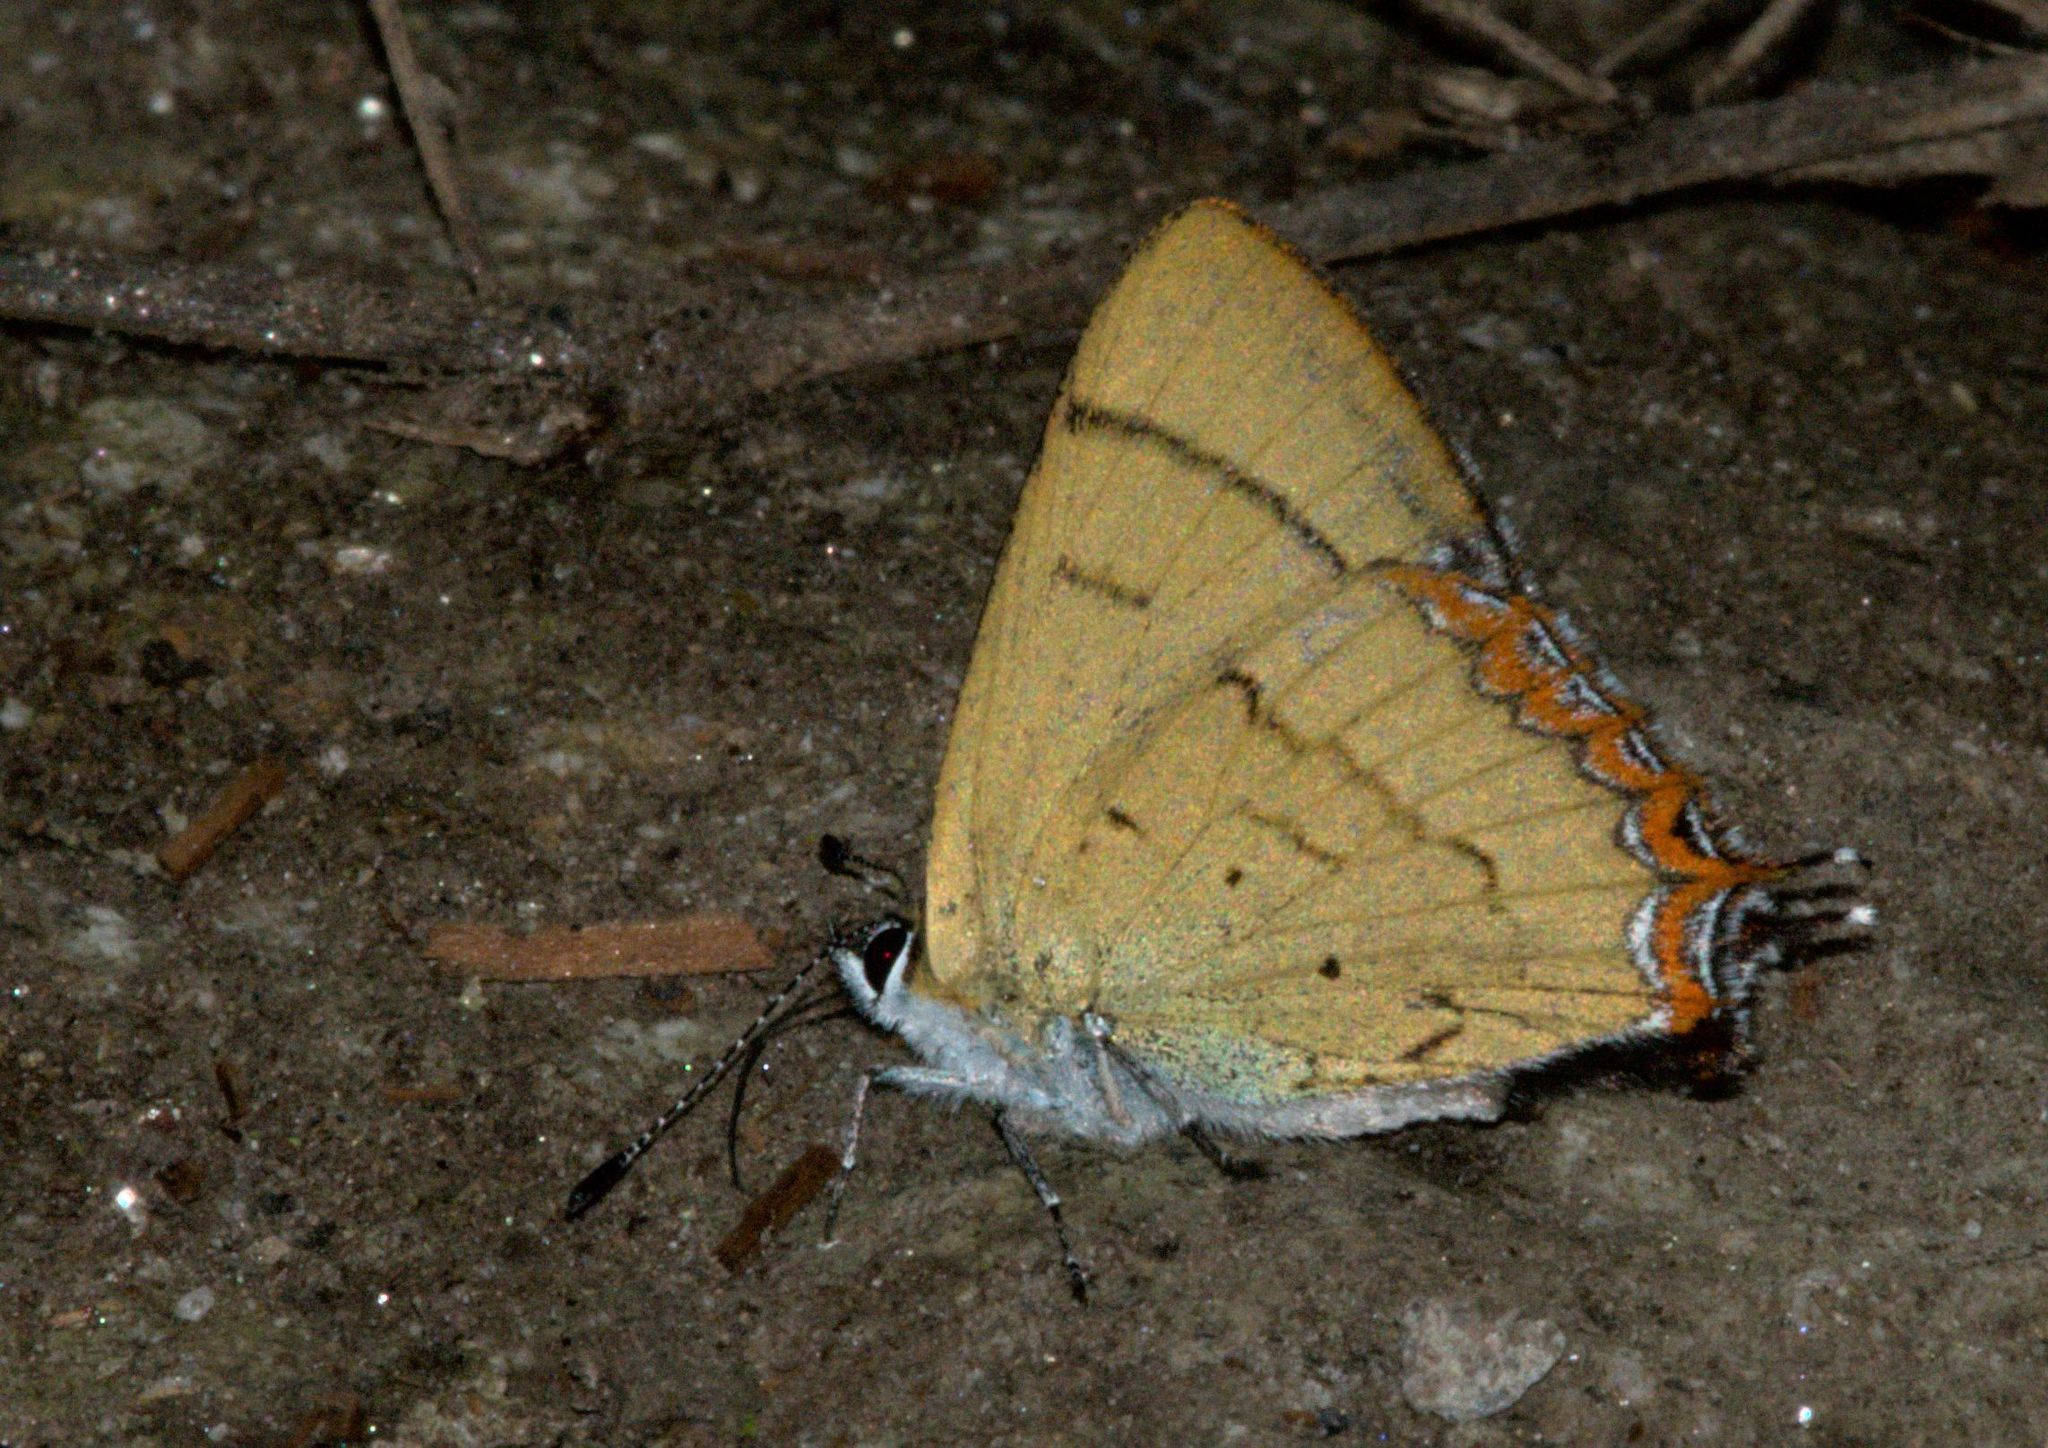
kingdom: Animalia
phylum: Arthropoda
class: Insecta
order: Lepidoptera
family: Lycaenidae
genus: Heliophorus
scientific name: Heliophorus
